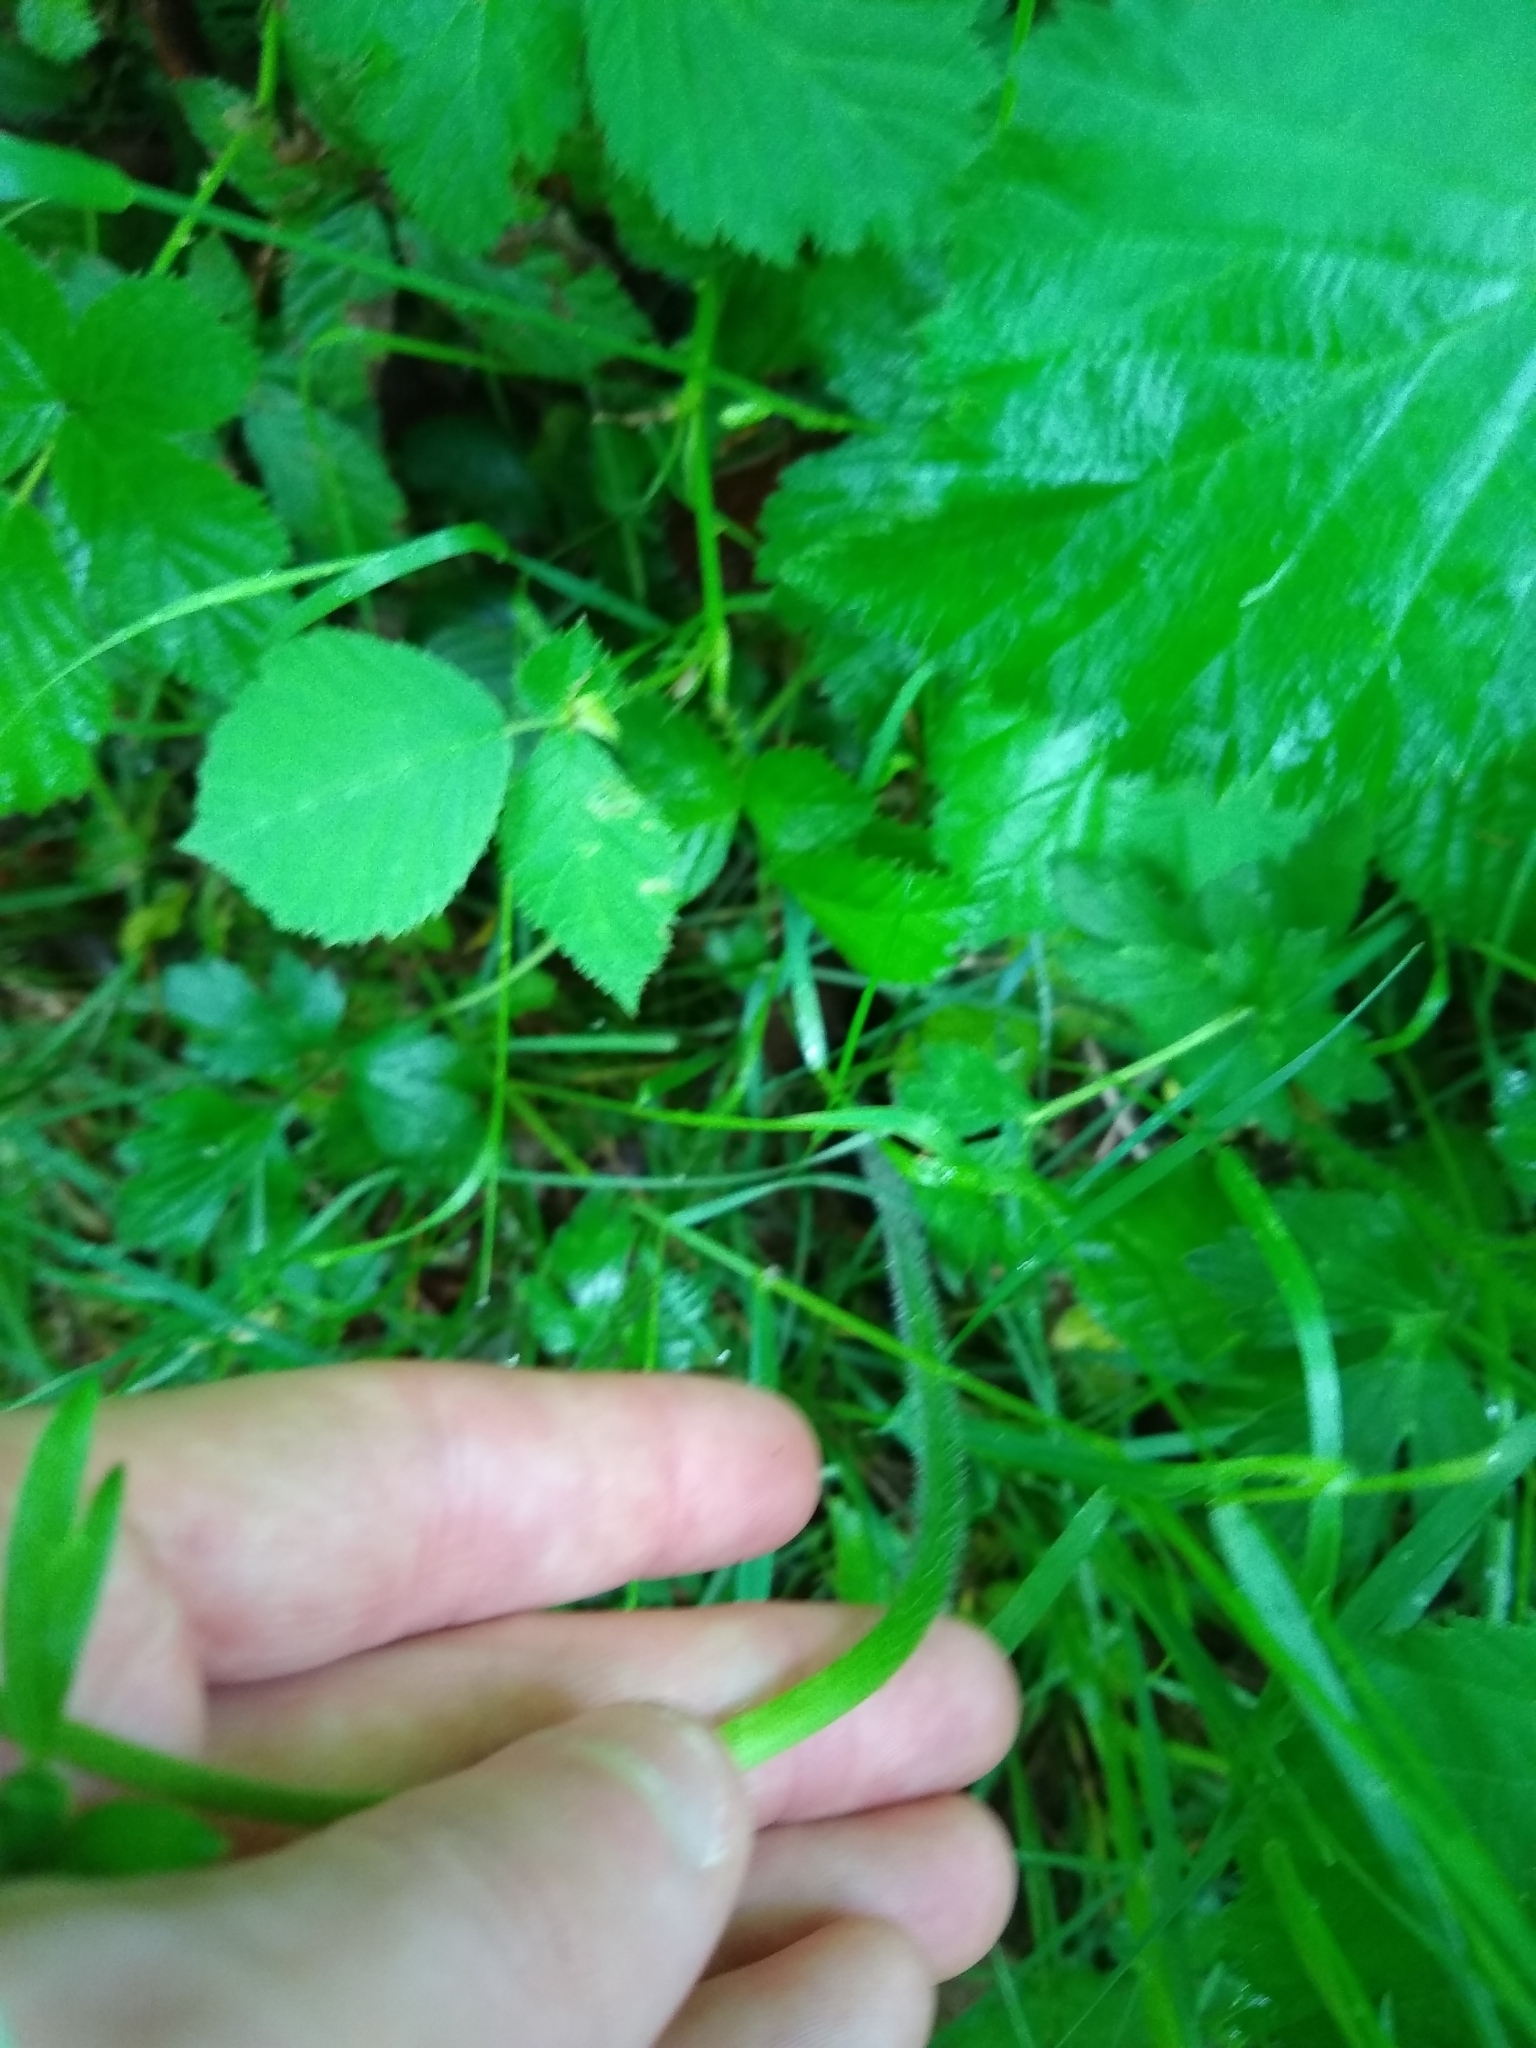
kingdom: Plantae
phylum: Tracheophyta
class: Magnoliopsida
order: Ranunculales
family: Ranunculaceae
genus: Ranunculus
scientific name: Ranunculus repens
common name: Creeping buttercup
